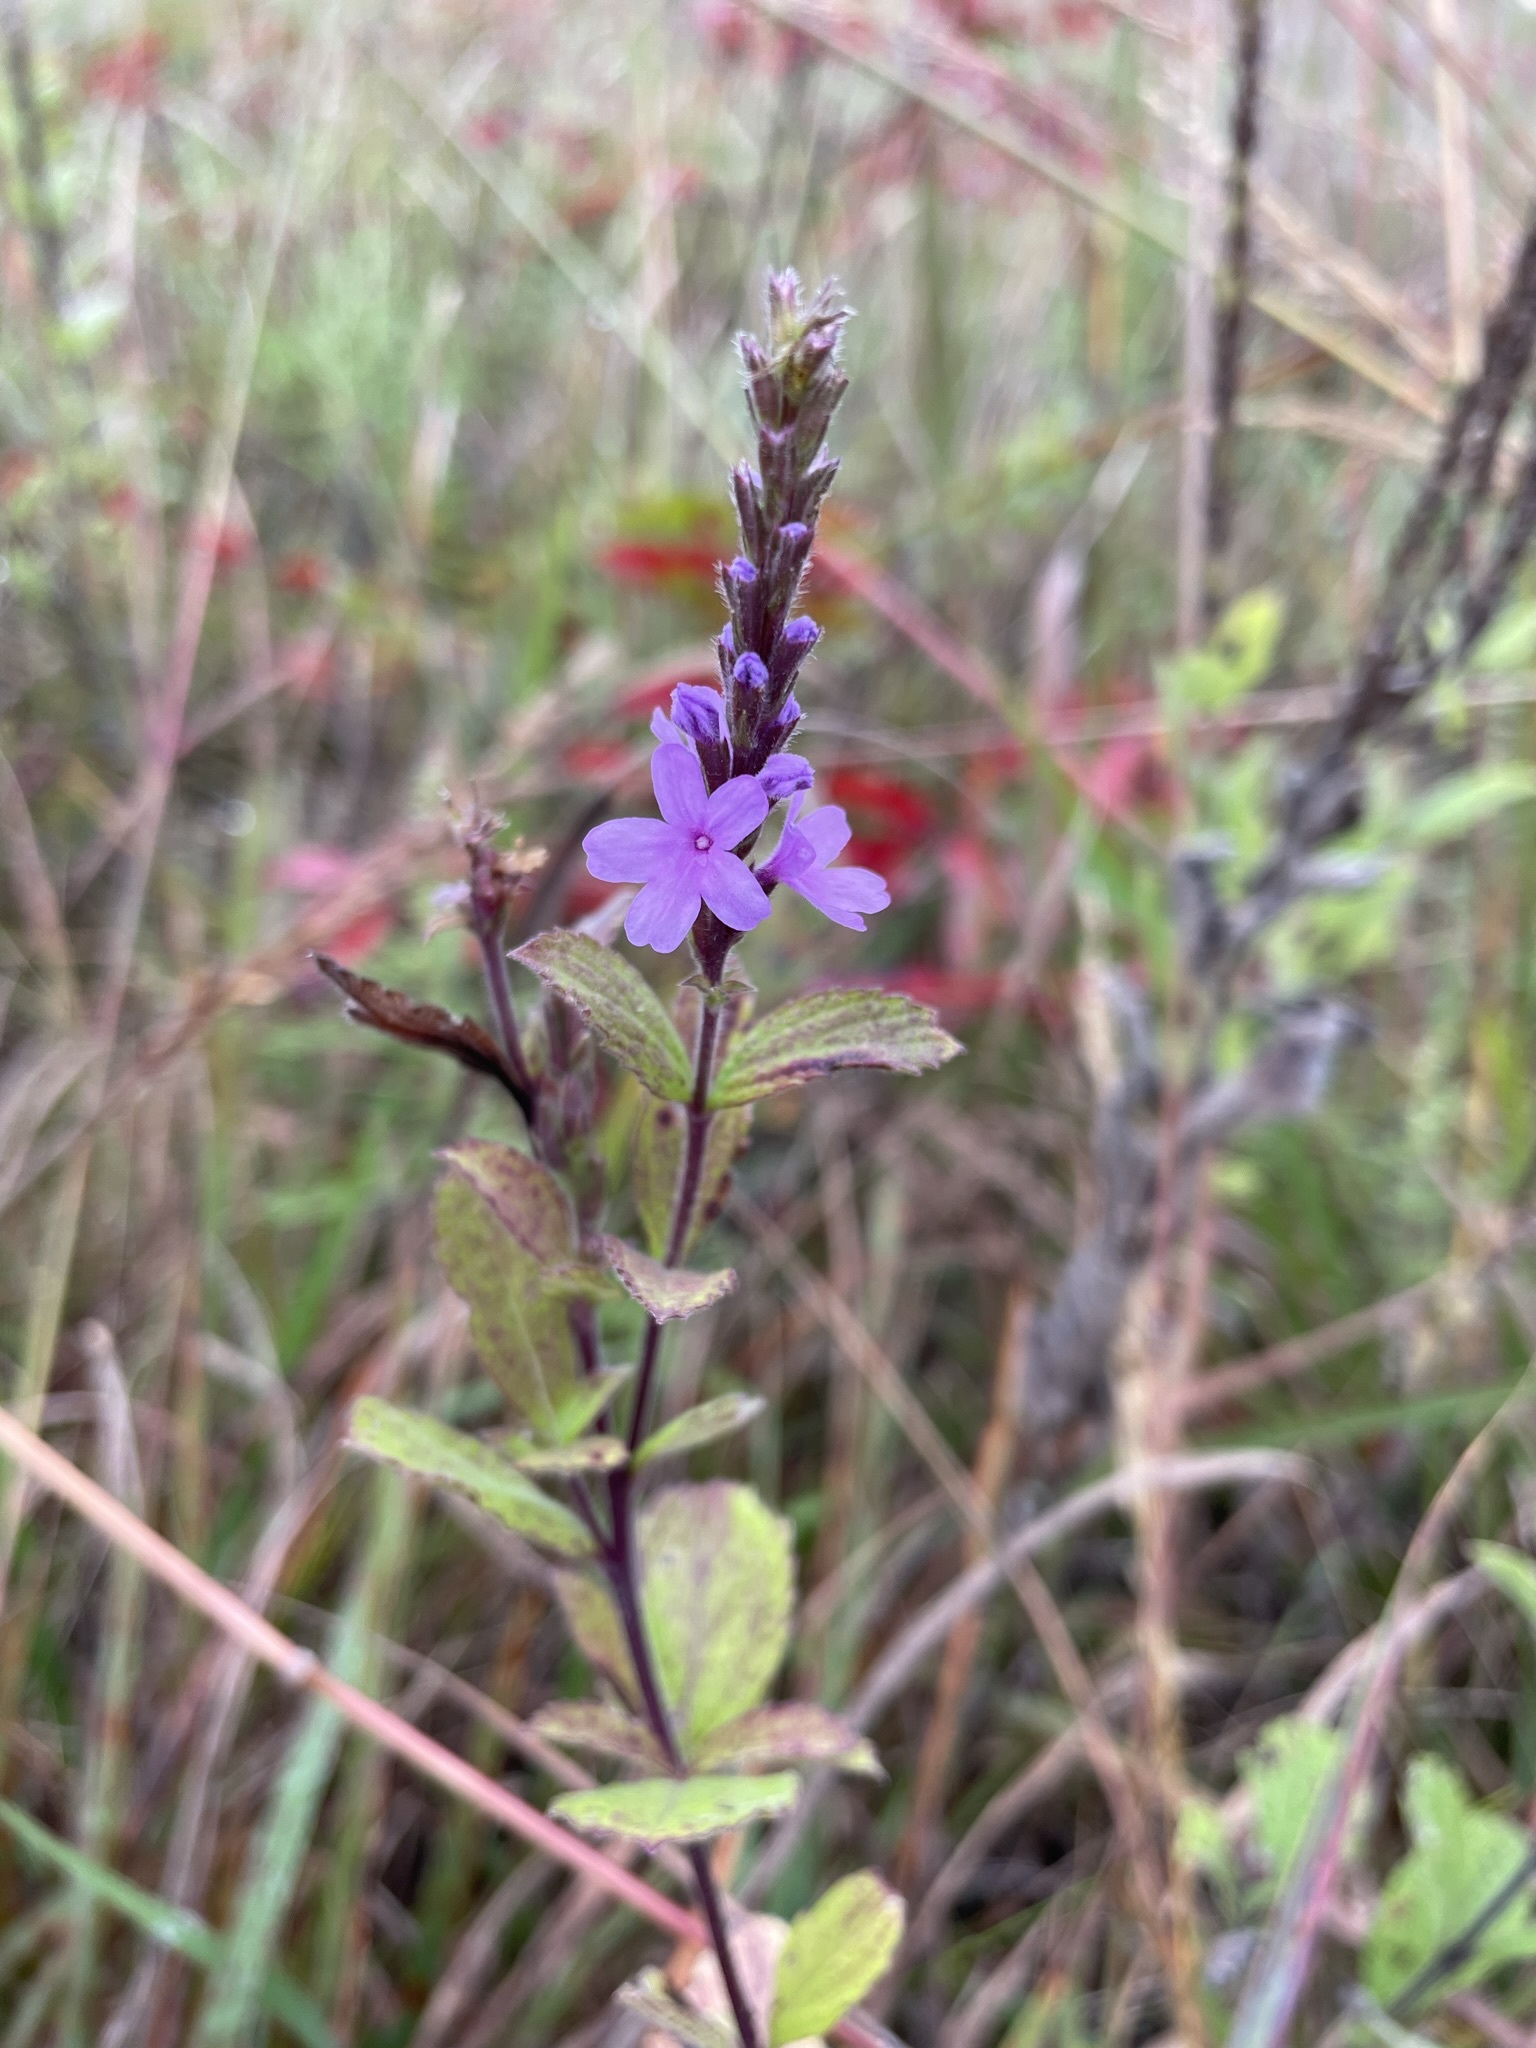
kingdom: Plantae
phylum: Tracheophyta
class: Magnoliopsida
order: Lamiales
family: Verbenaceae
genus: Verbena
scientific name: Verbena stricta
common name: Hoary vervain
